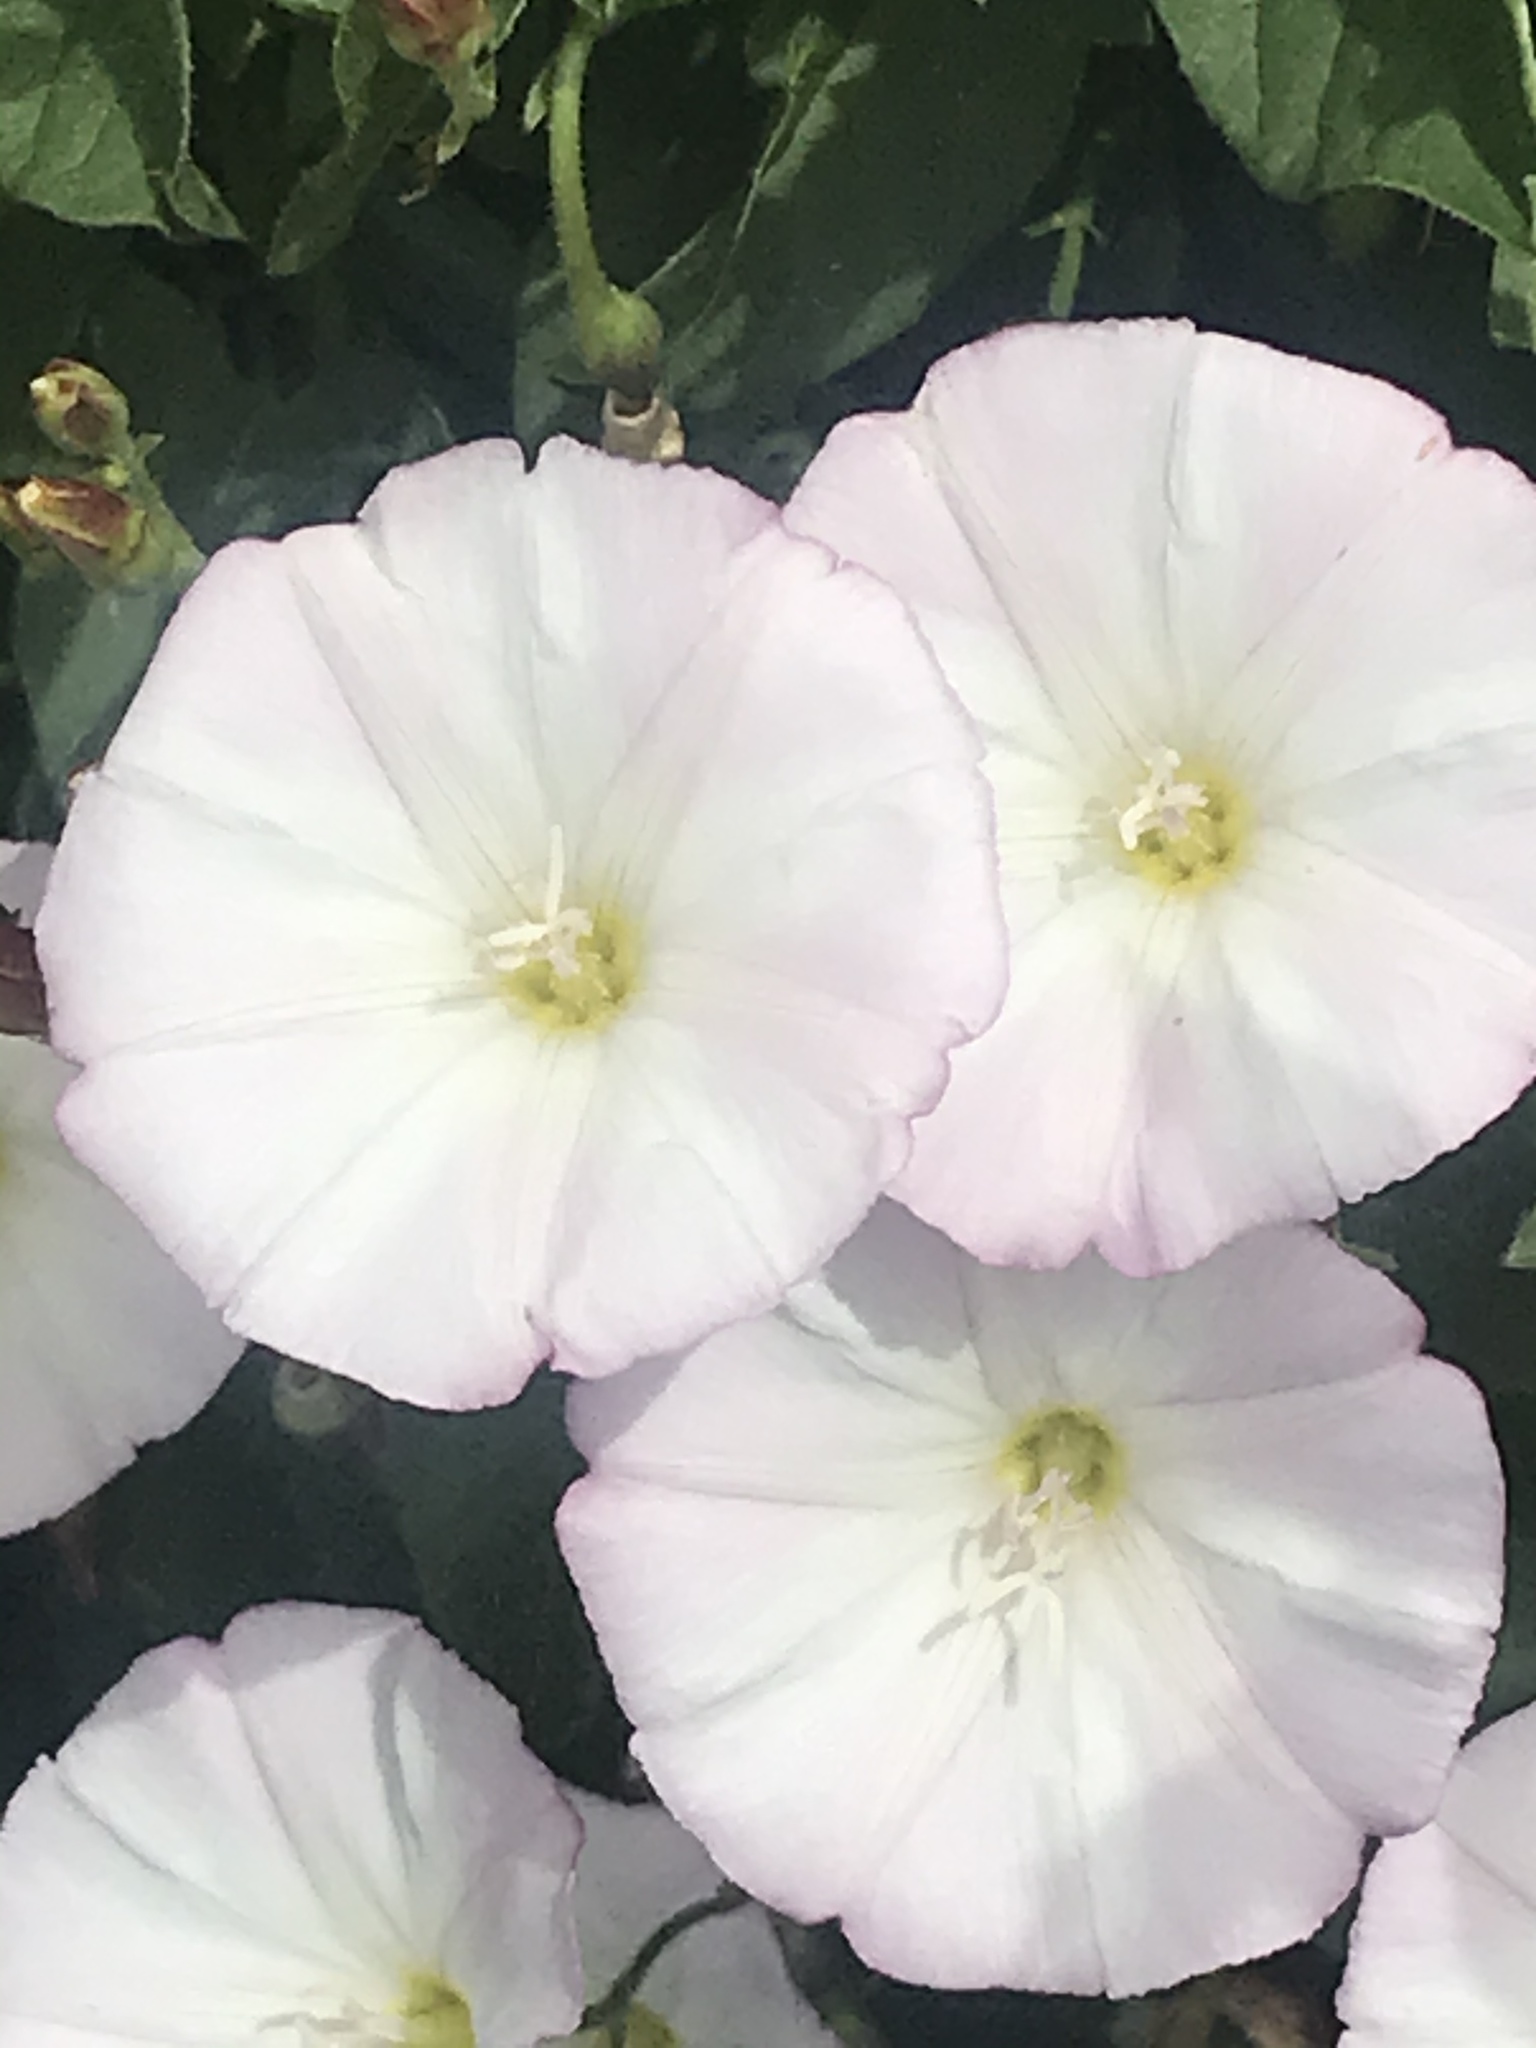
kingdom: Plantae
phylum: Tracheophyta
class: Magnoliopsida
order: Solanales
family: Convolvulaceae
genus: Convolvulus
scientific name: Convolvulus arvensis
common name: Field bindweed
